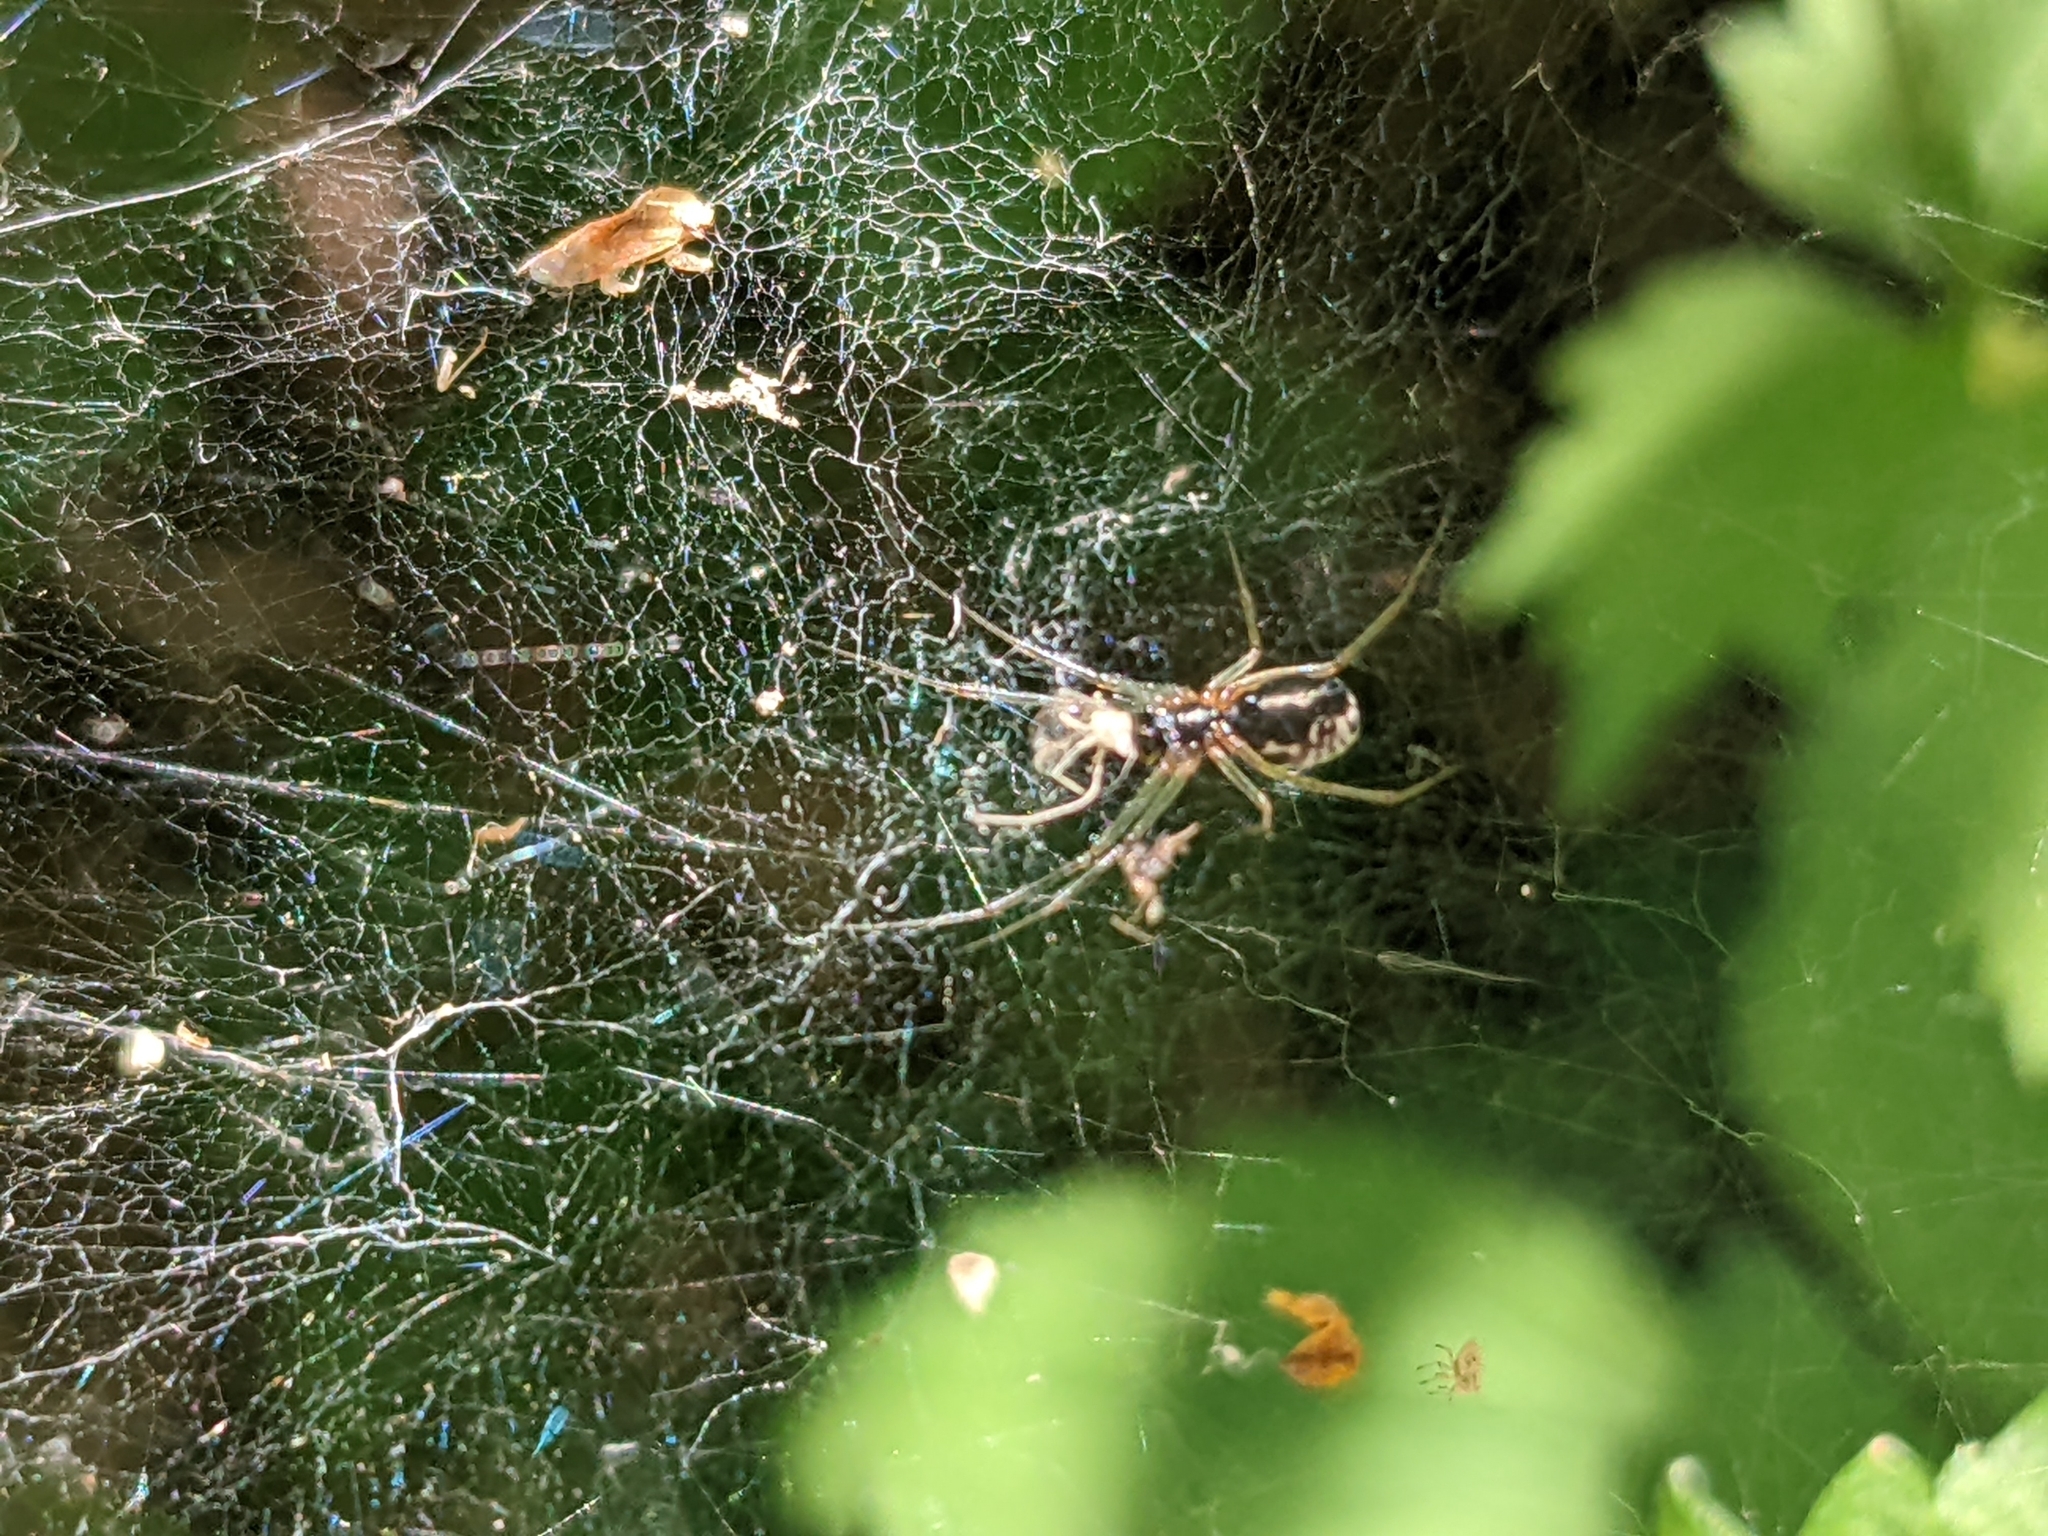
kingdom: Animalia
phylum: Arthropoda
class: Arachnida
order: Araneae
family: Linyphiidae
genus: Frontinellina
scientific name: Frontinellina frutetorum
